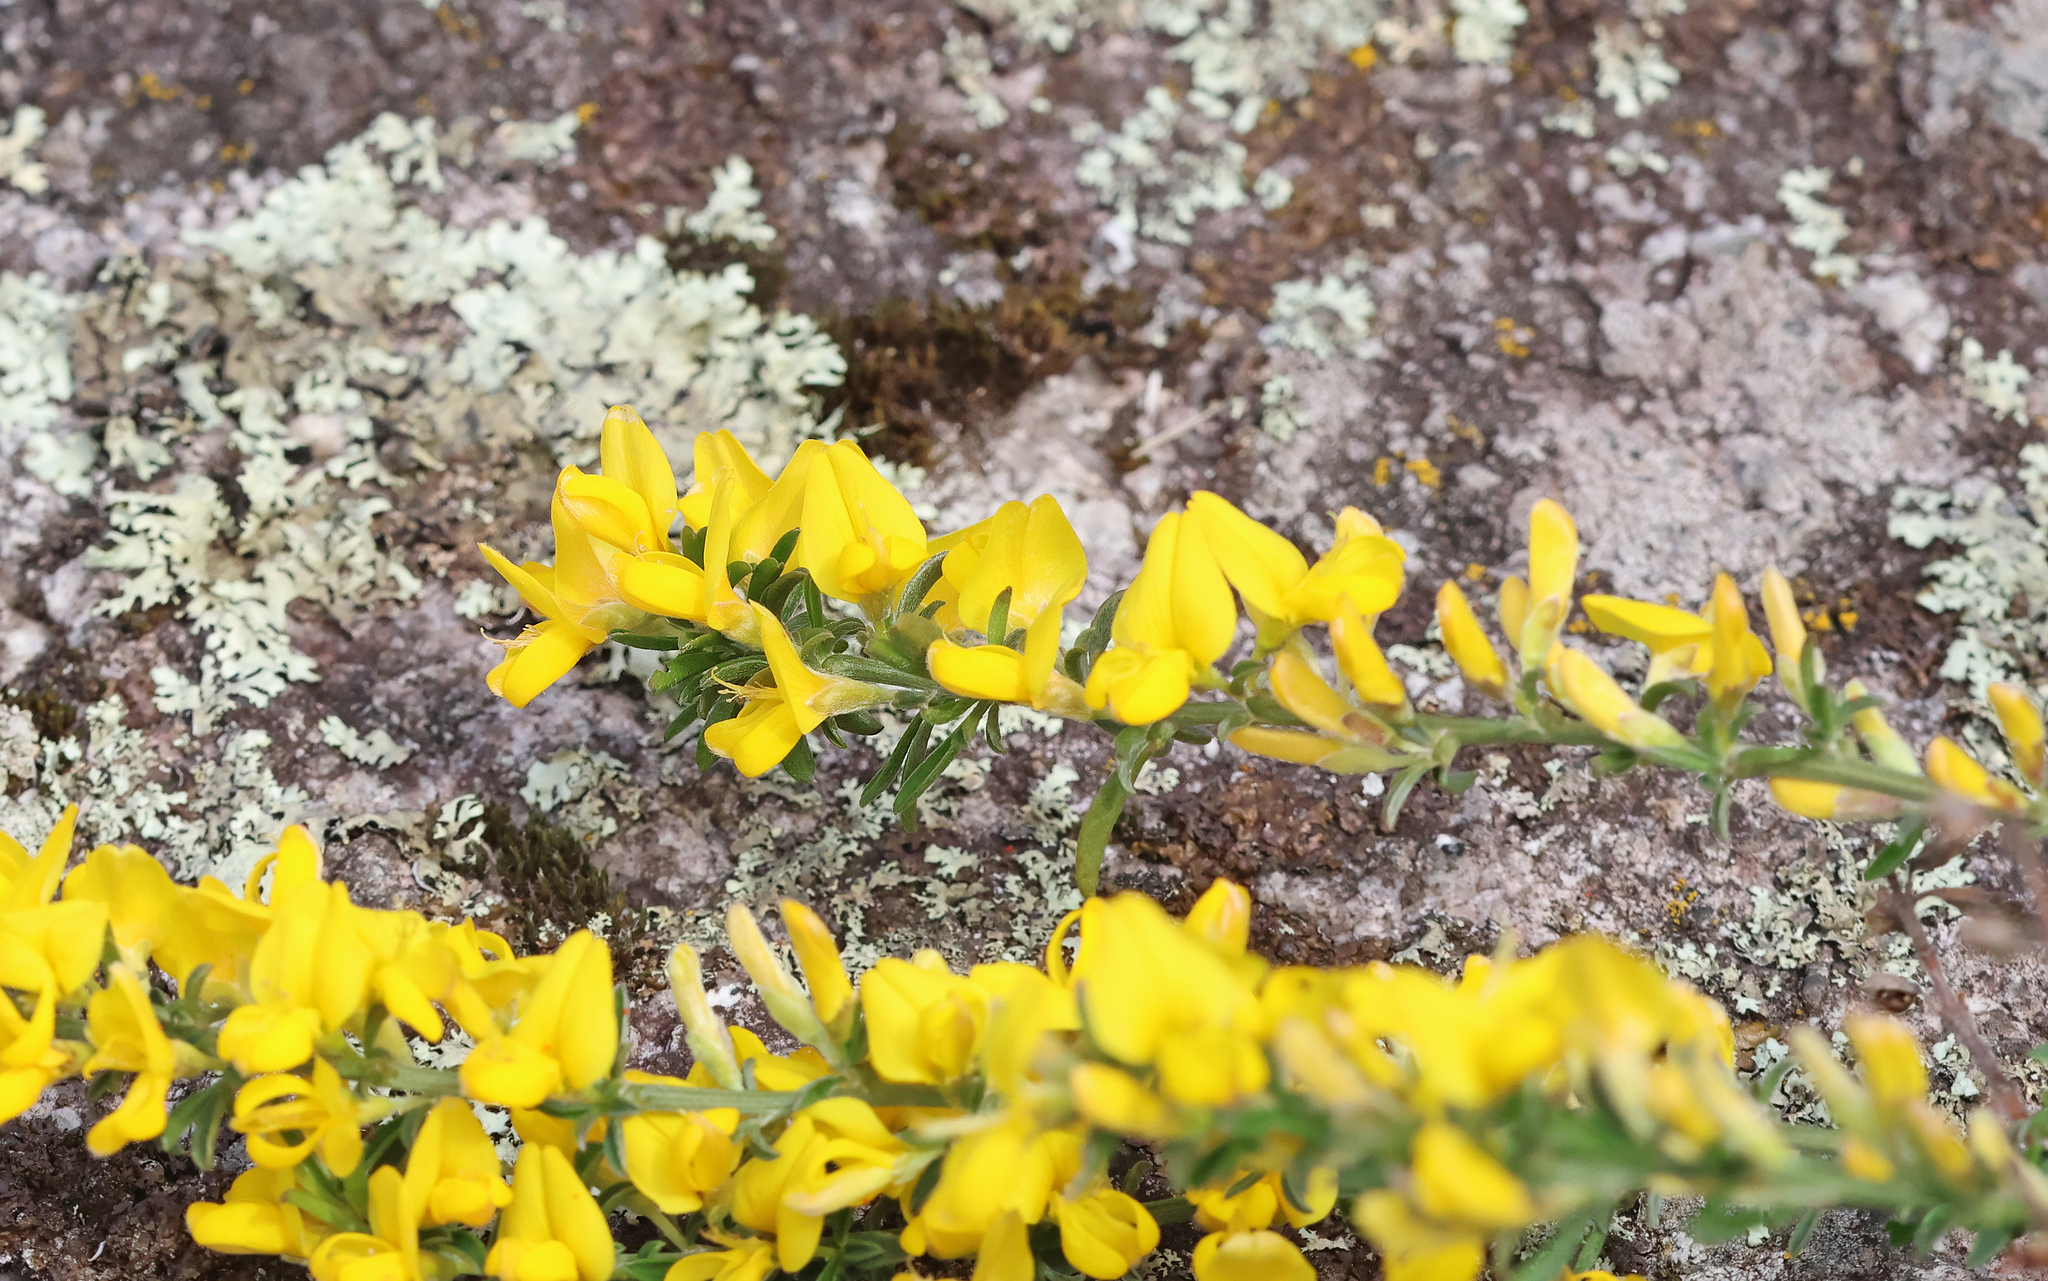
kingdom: Plantae
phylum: Tracheophyta
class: Magnoliopsida
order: Fabales
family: Fabaceae
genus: Genista
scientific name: Genista pilosa
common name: Hairy greenweed
